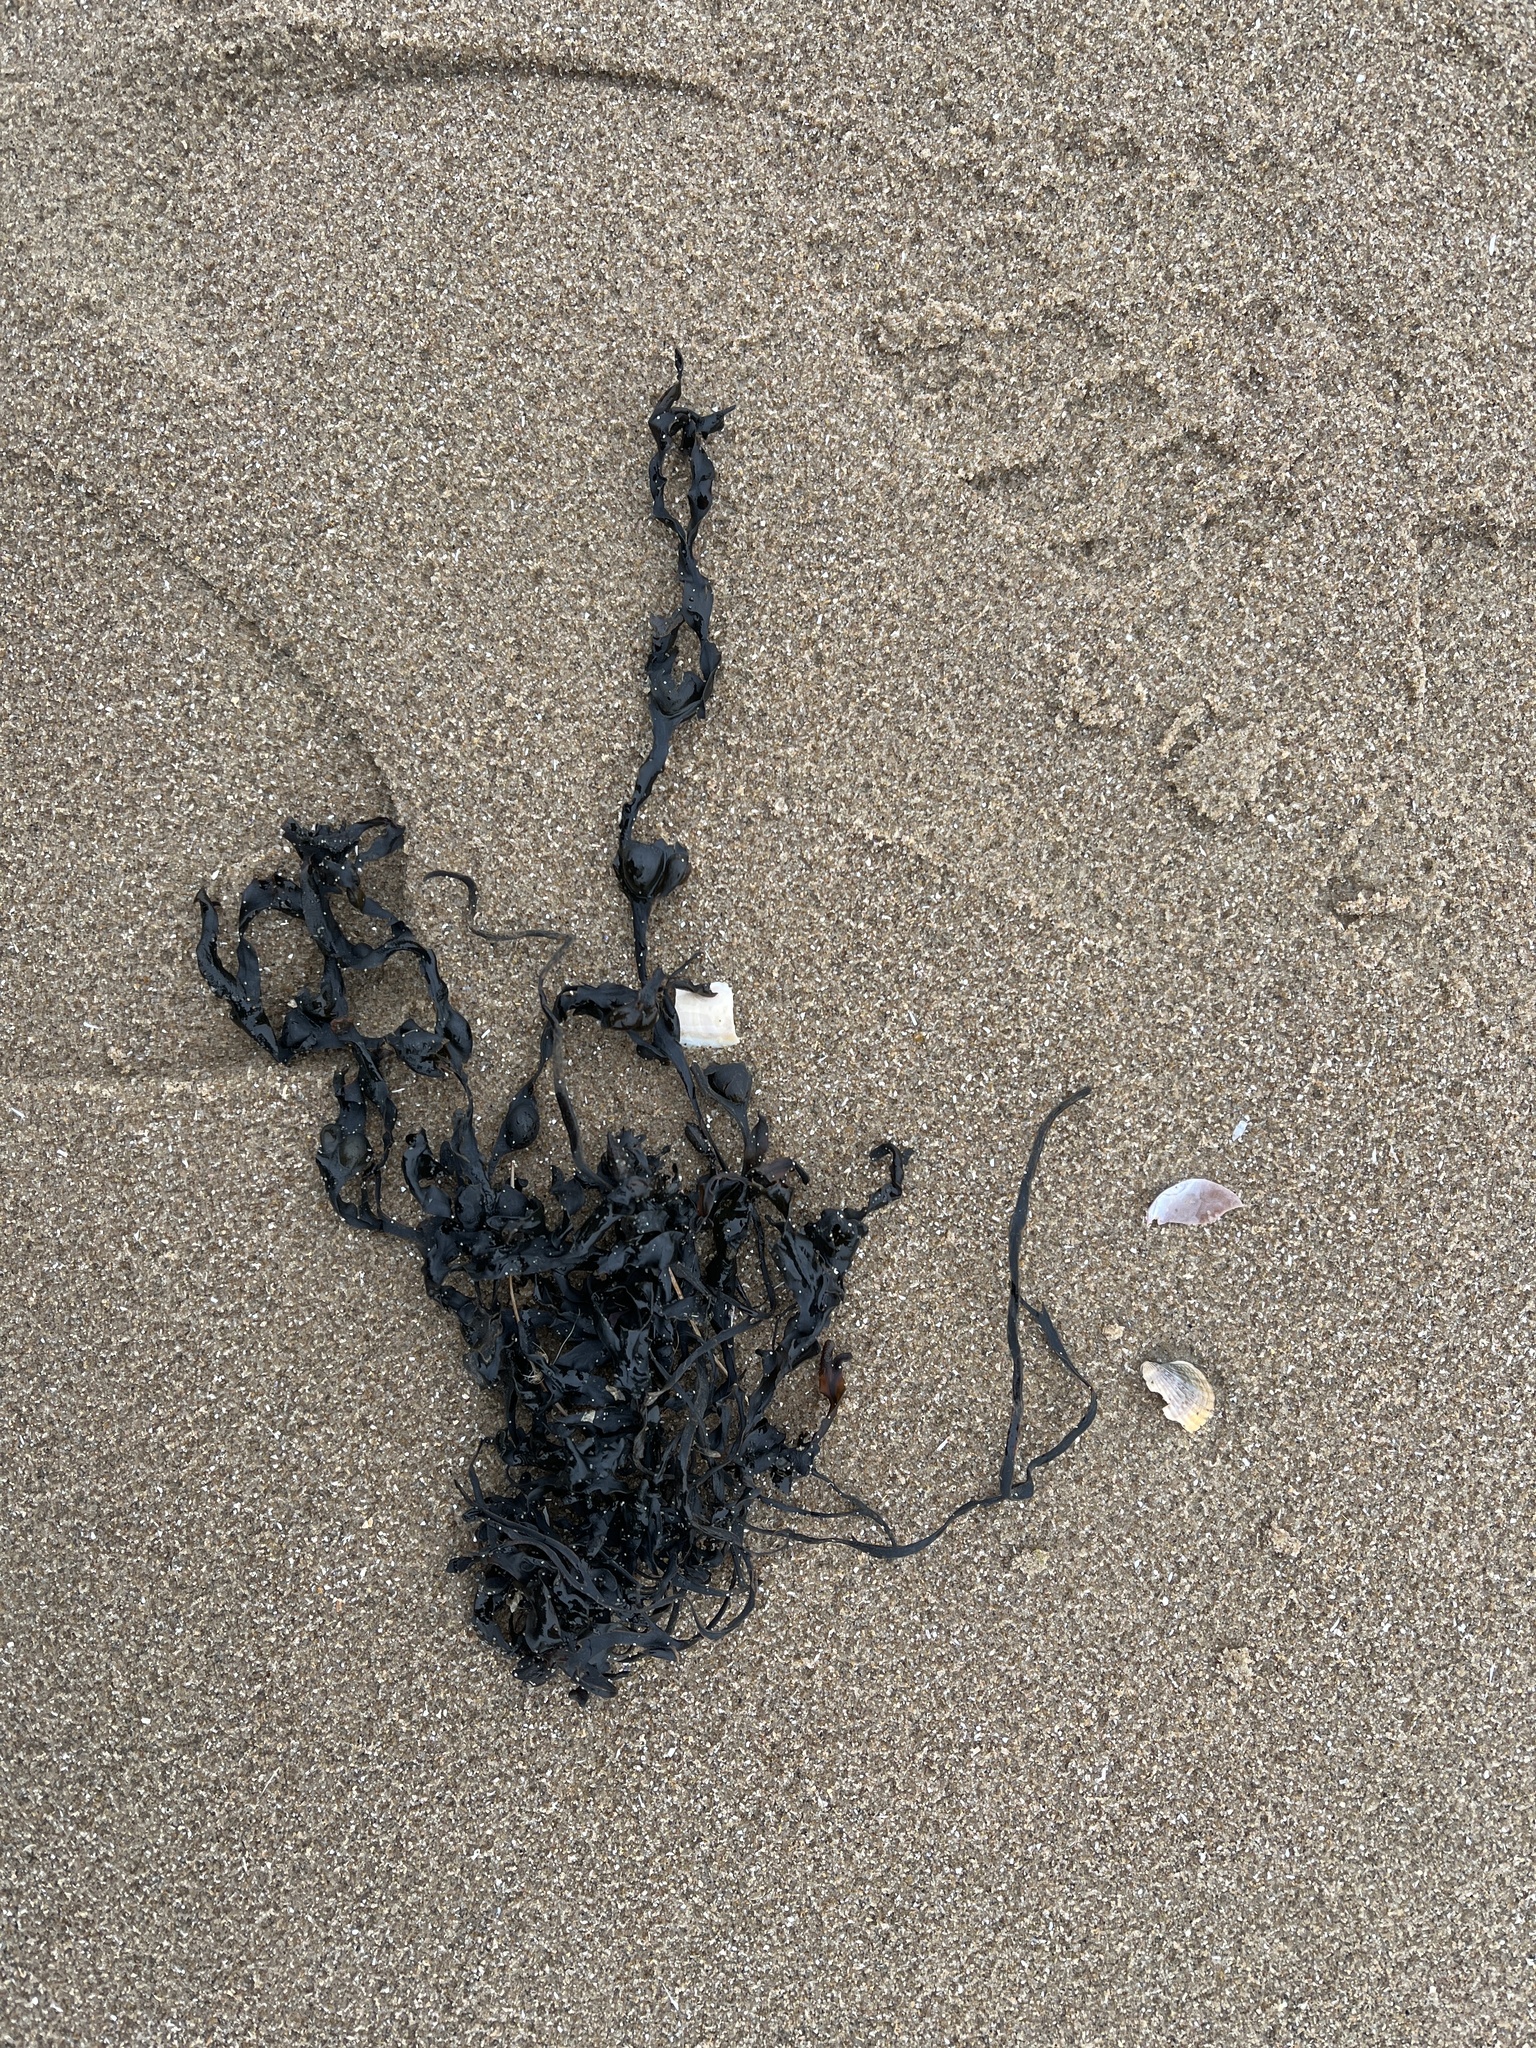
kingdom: Chromista
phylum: Ochrophyta
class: Phaeophyceae
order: Fucales
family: Fucaceae
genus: Ascophyllum
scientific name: Ascophyllum nodosum
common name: Knotted wrack
